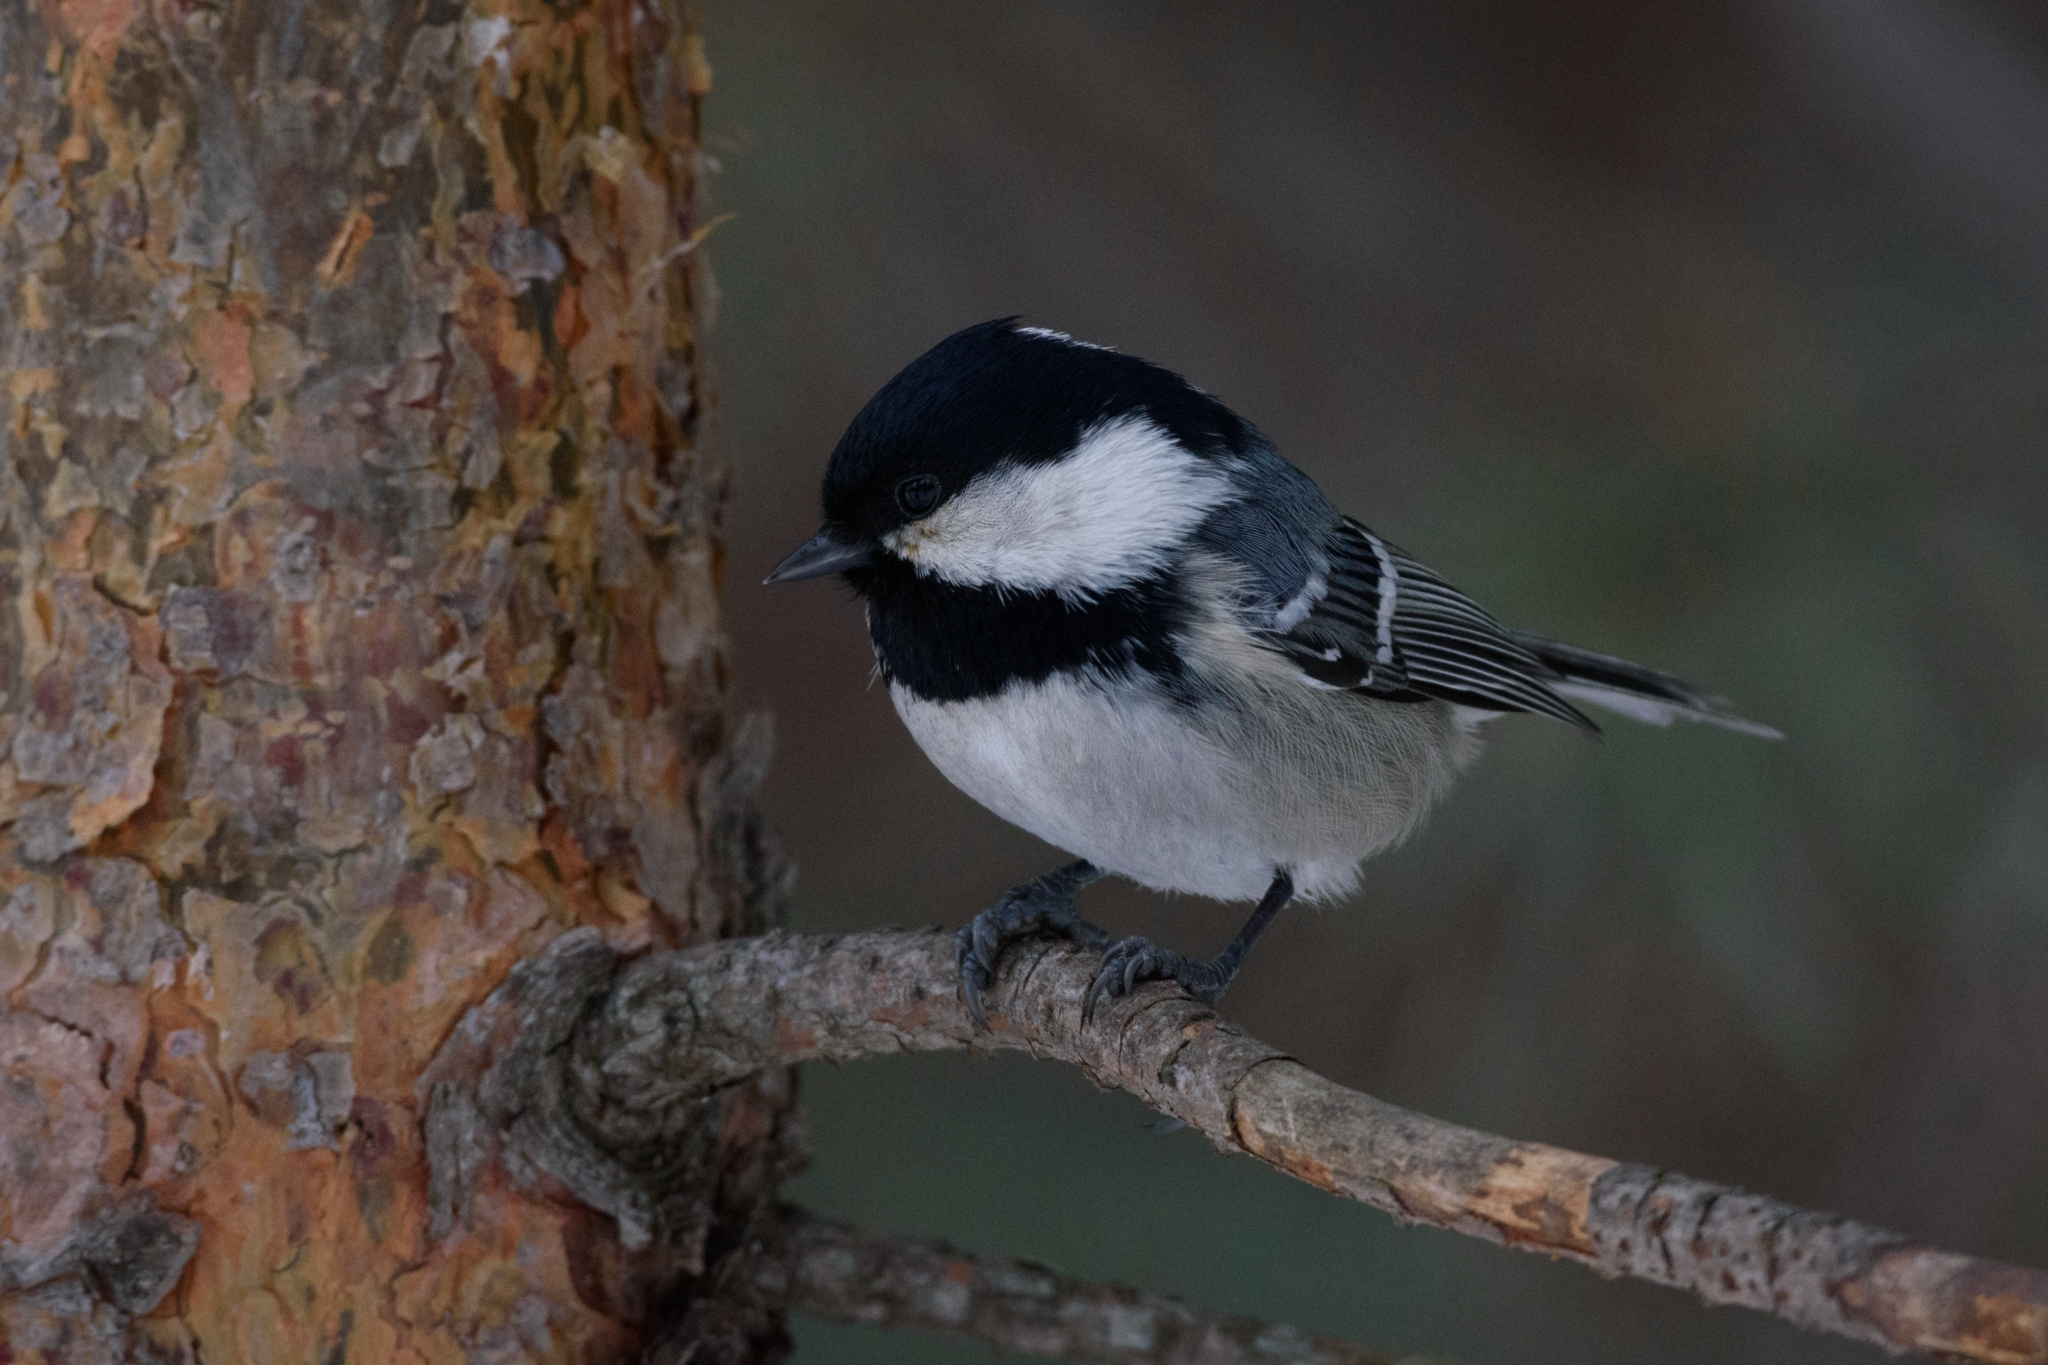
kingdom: Animalia
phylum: Chordata
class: Aves
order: Passeriformes
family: Paridae
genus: Periparus
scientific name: Periparus ater
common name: Coal tit
